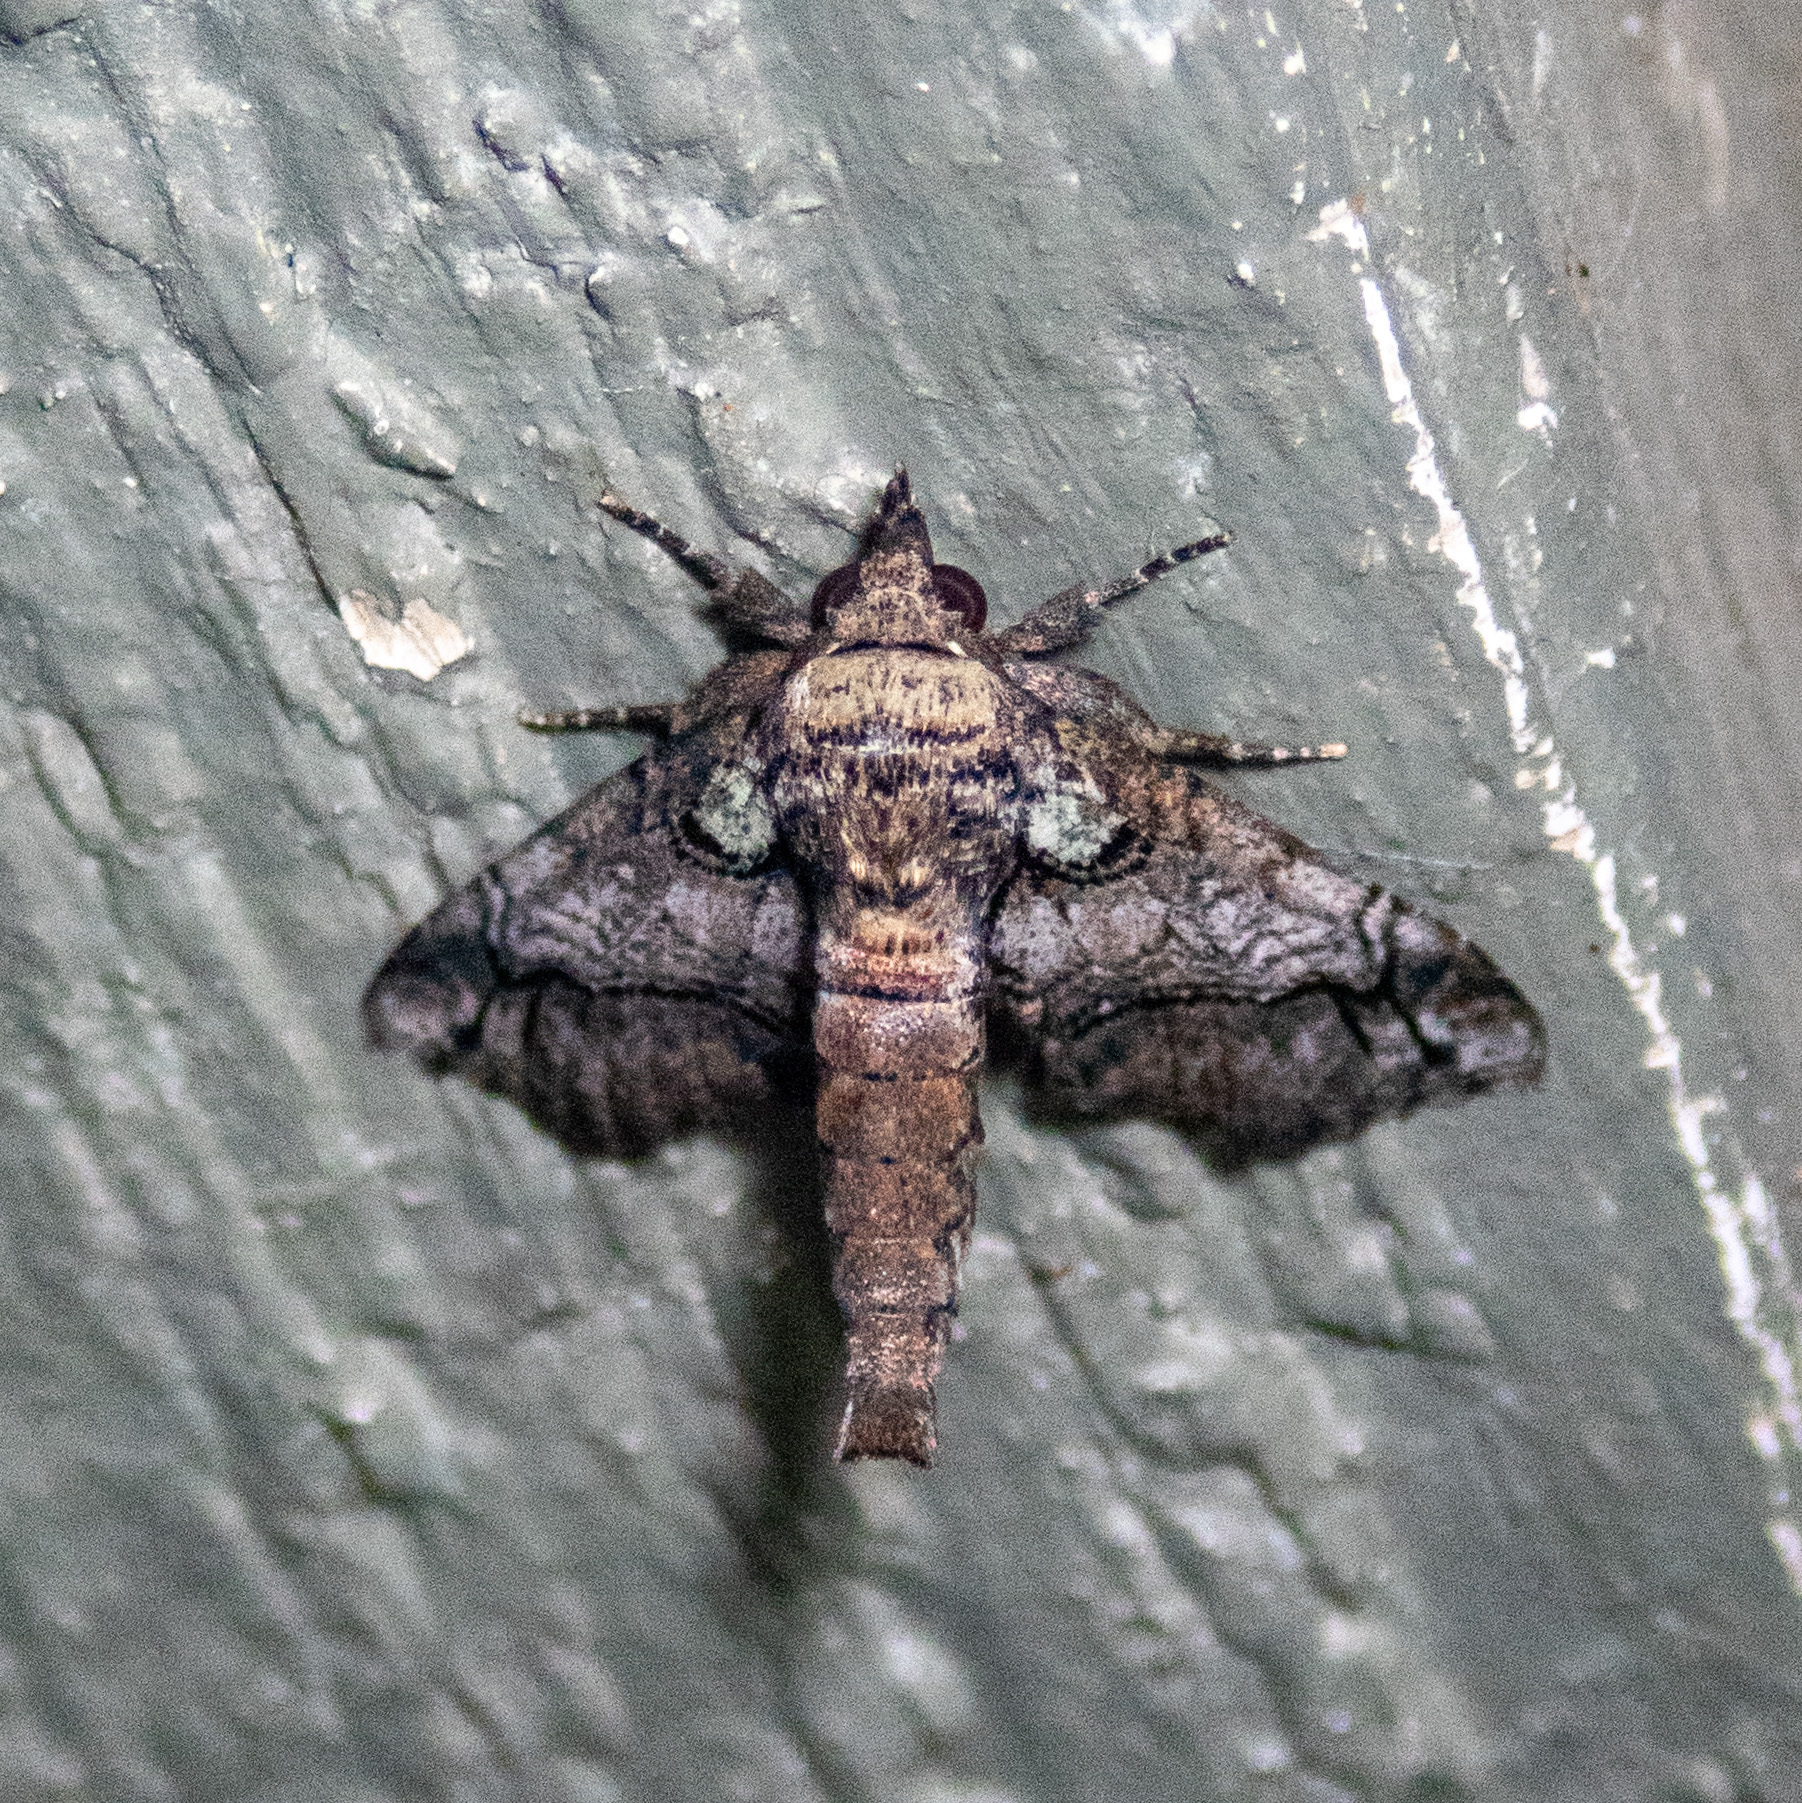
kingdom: Animalia
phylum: Arthropoda
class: Insecta
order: Lepidoptera
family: Euteliidae
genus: Paectes
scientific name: Paectes abrostoloides
